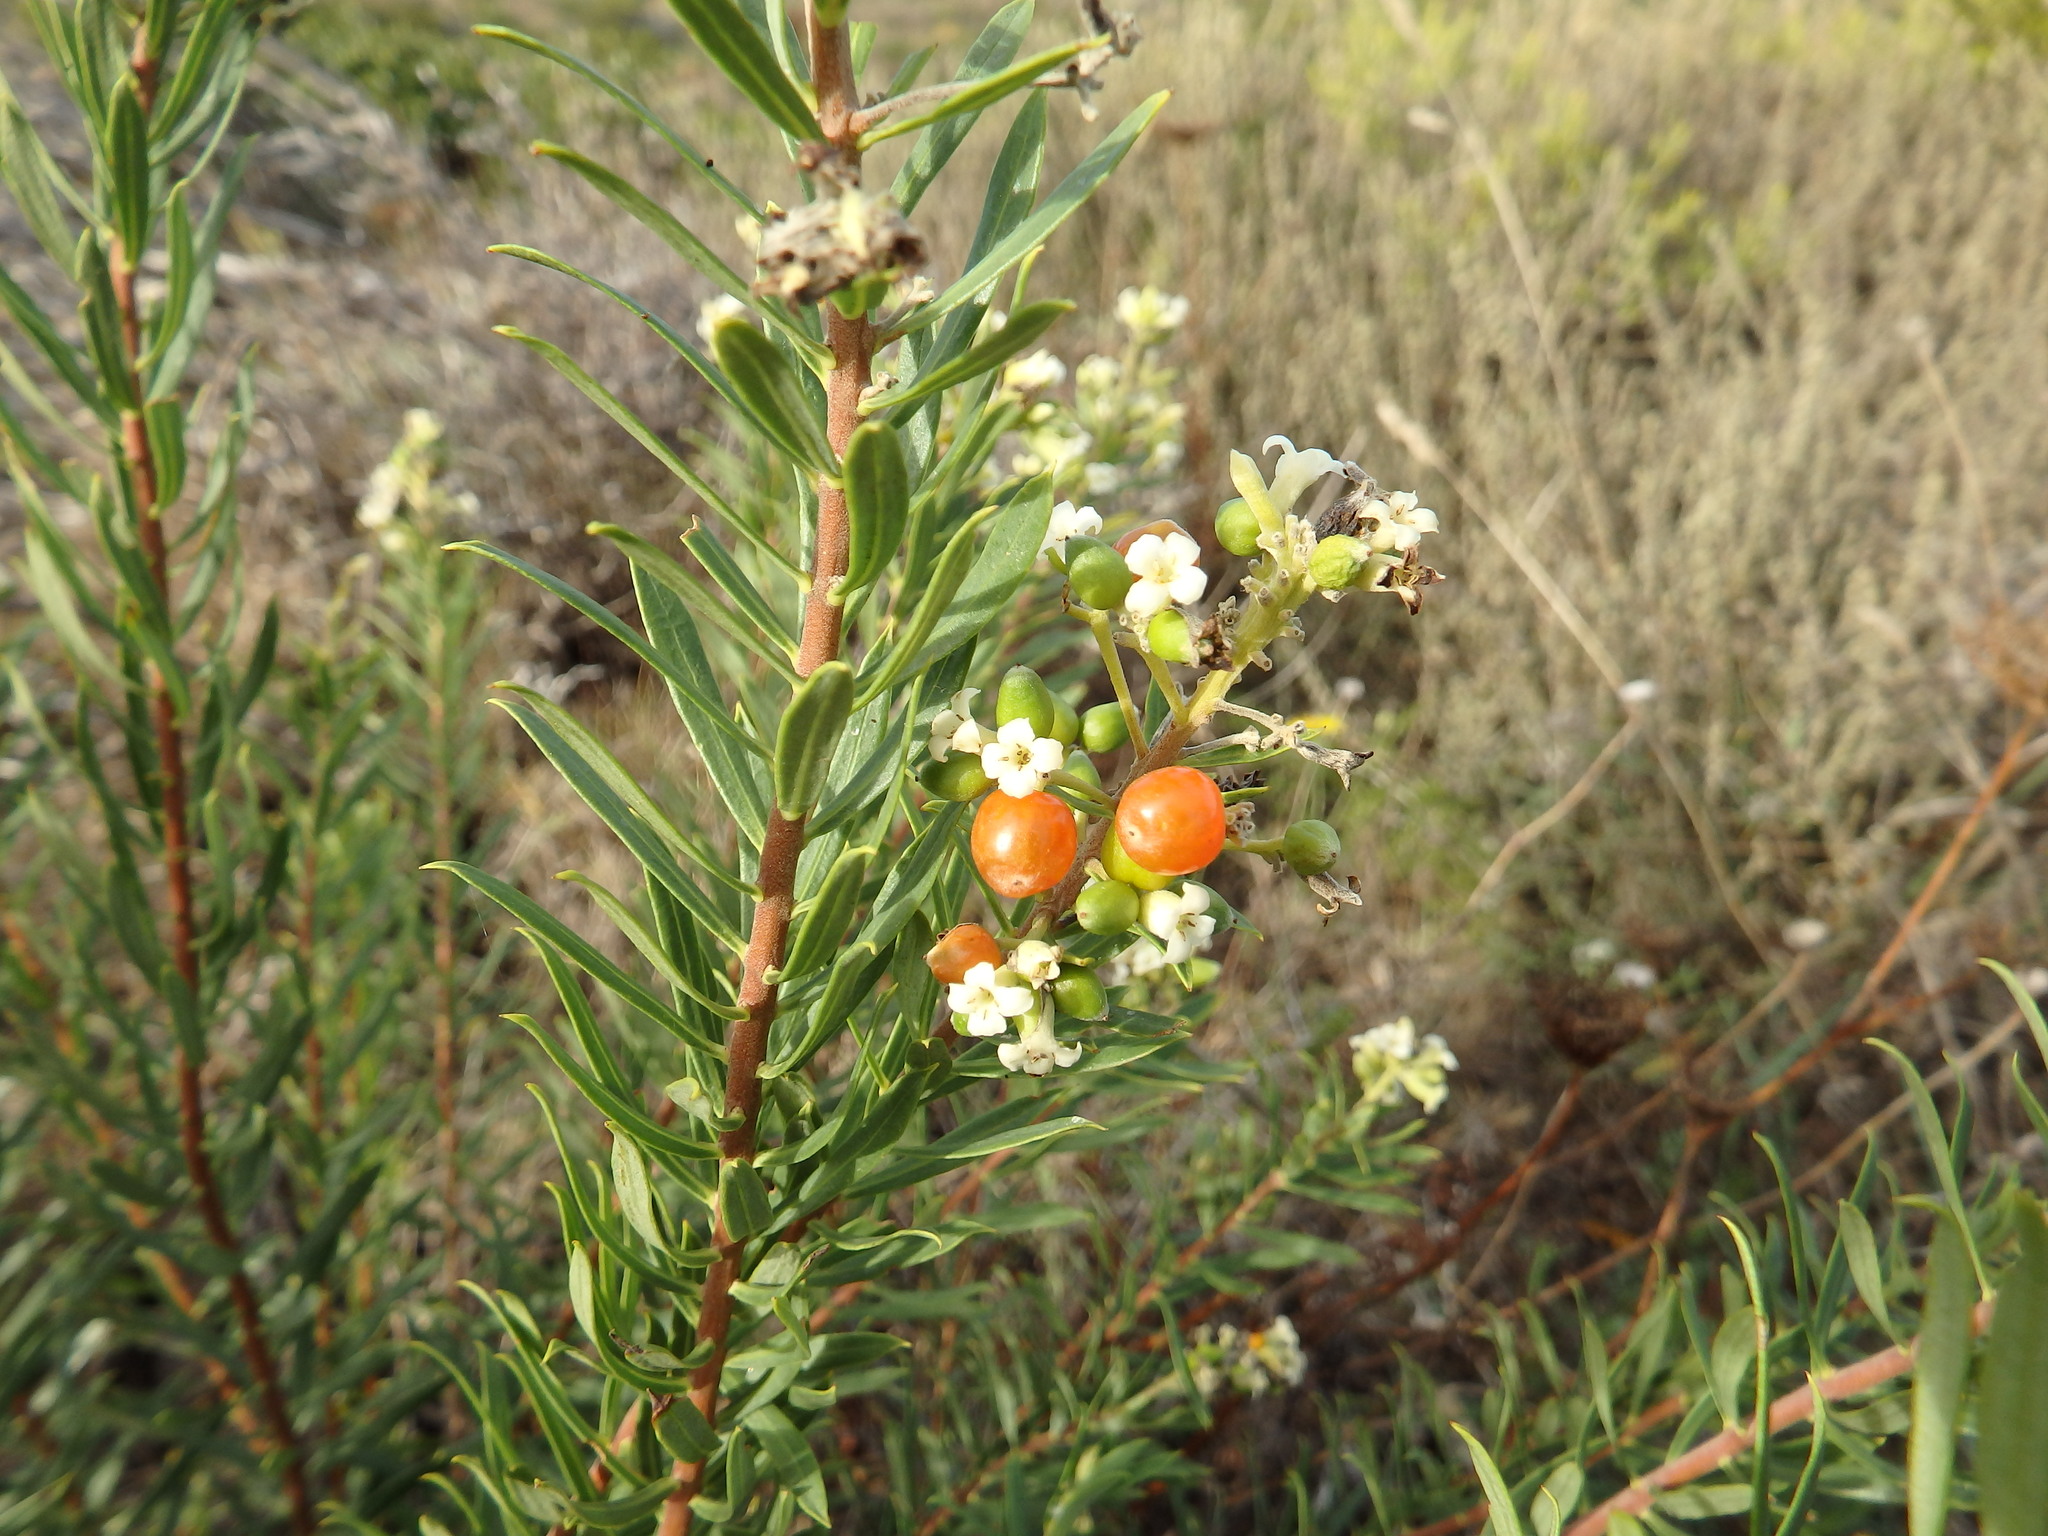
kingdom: Plantae
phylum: Tracheophyta
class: Magnoliopsida
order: Malvales
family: Thymelaeaceae
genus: Daphne
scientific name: Daphne gnidium
